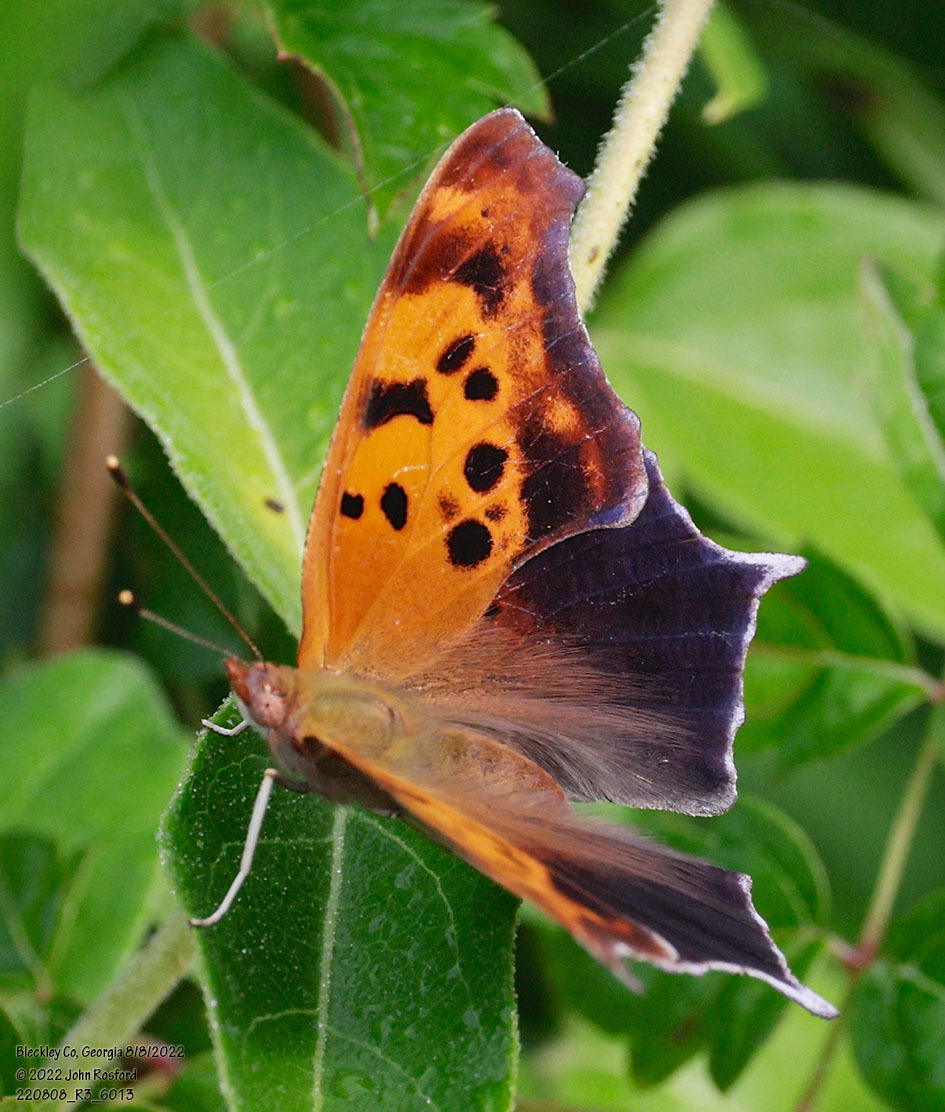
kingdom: Animalia
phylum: Arthropoda
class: Insecta
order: Lepidoptera
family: Nymphalidae
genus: Polygonia
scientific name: Polygonia interrogationis
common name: Question mark
